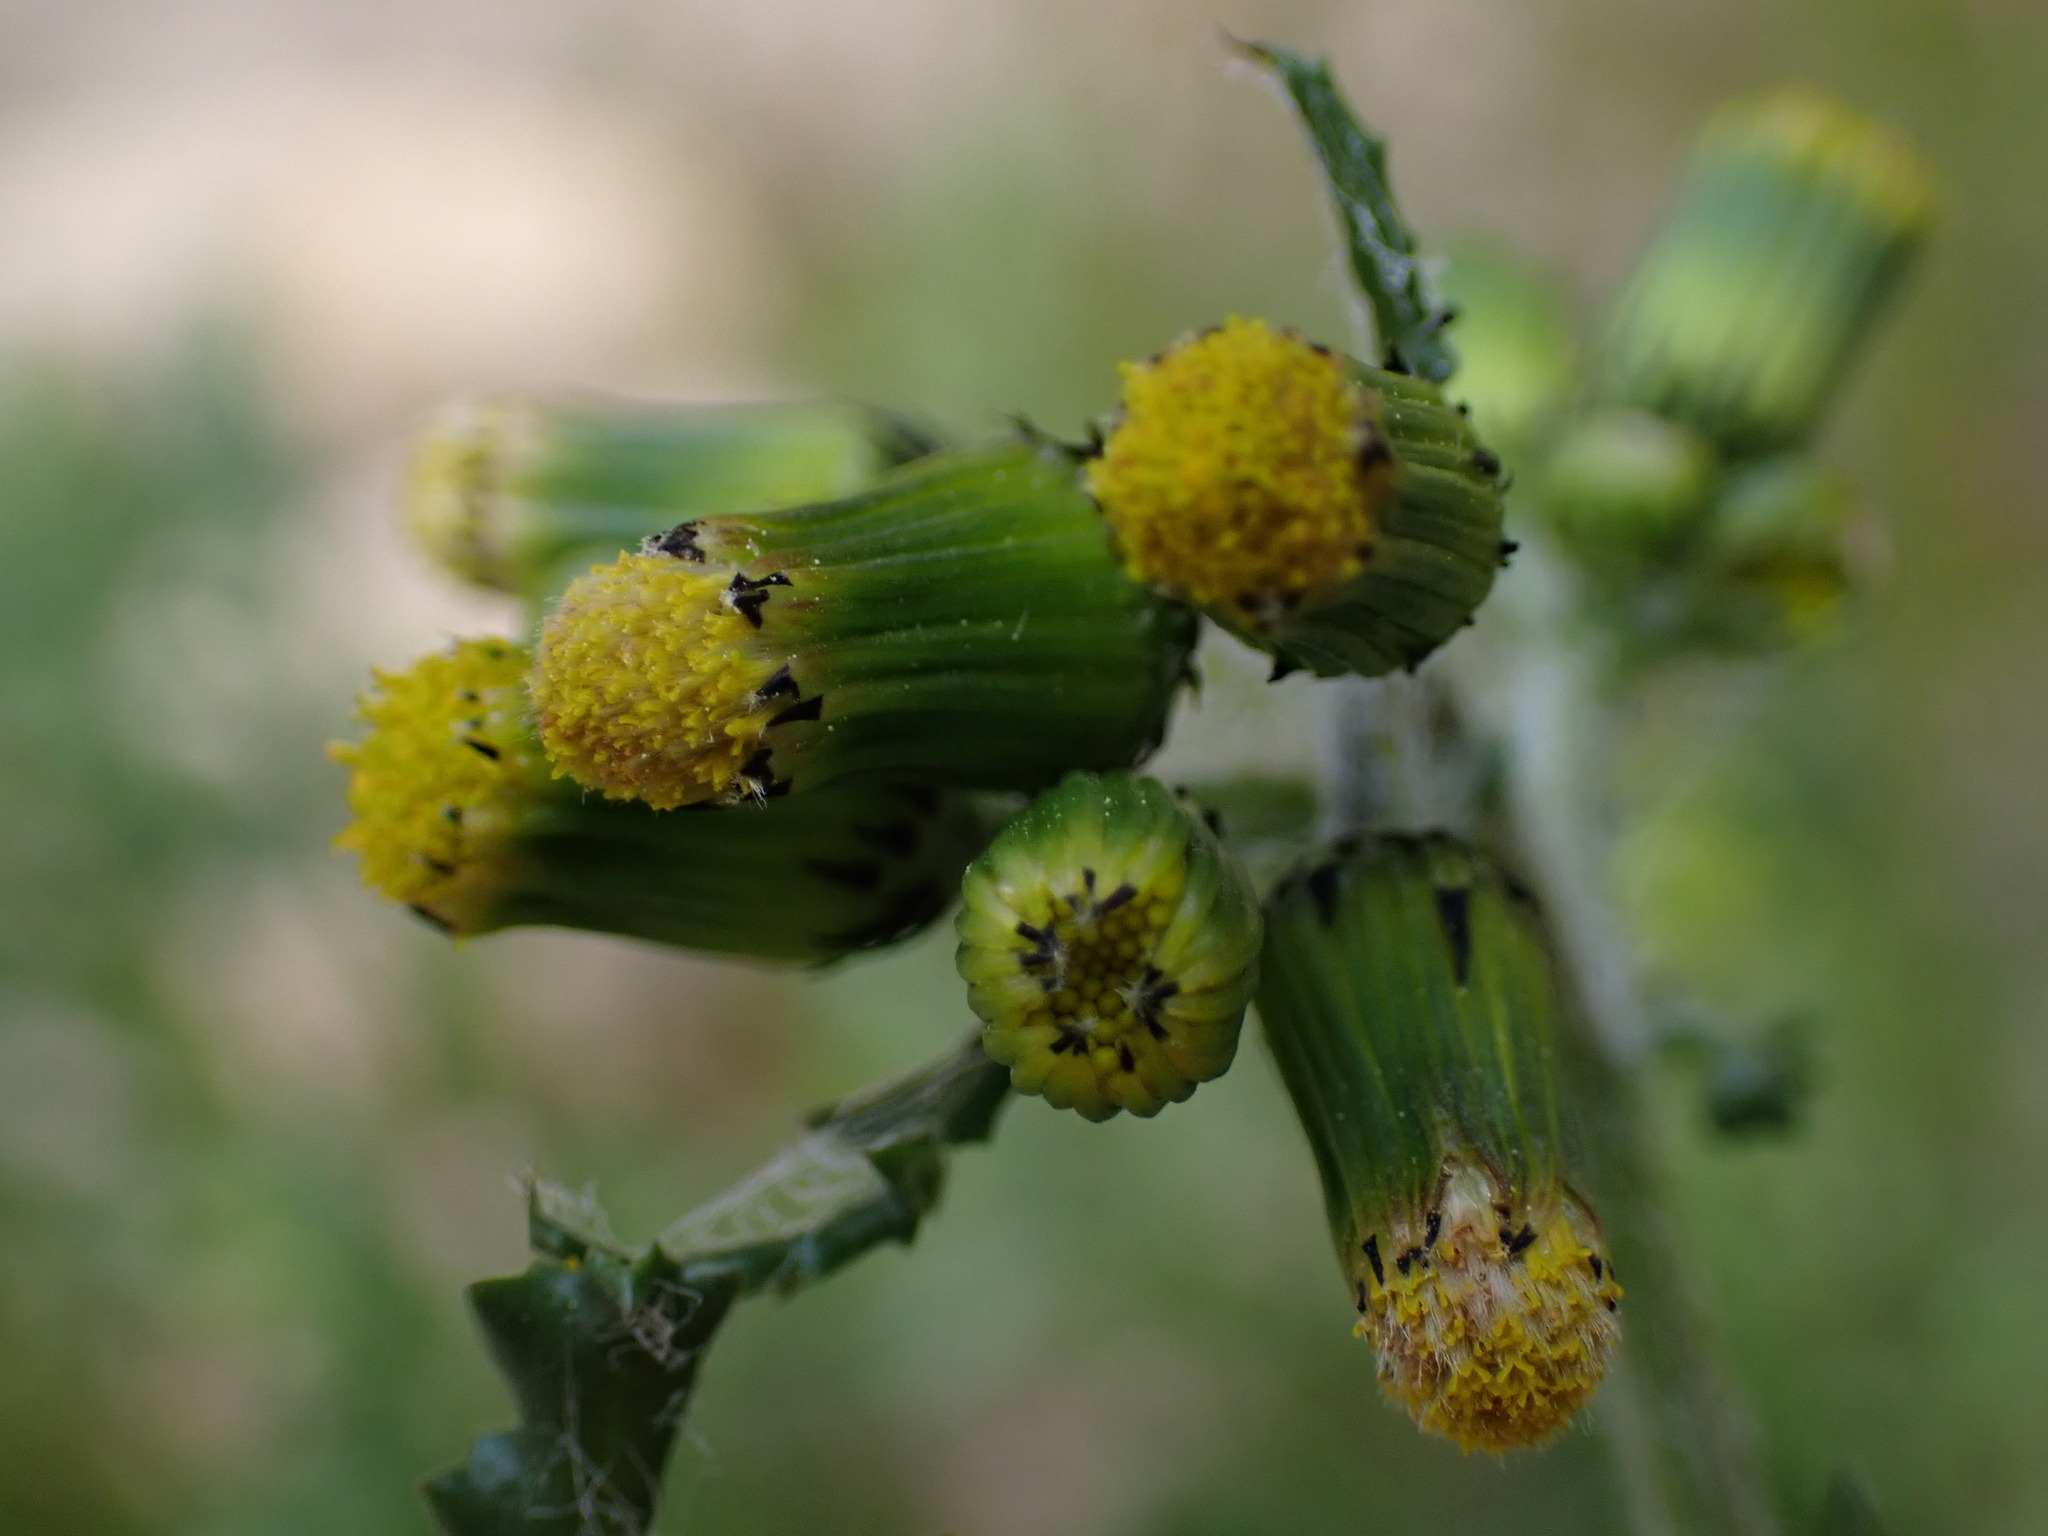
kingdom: Plantae
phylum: Tracheophyta
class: Magnoliopsida
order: Asterales
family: Asteraceae
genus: Senecio
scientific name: Senecio vulgaris
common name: Old-man-in-the-spring
